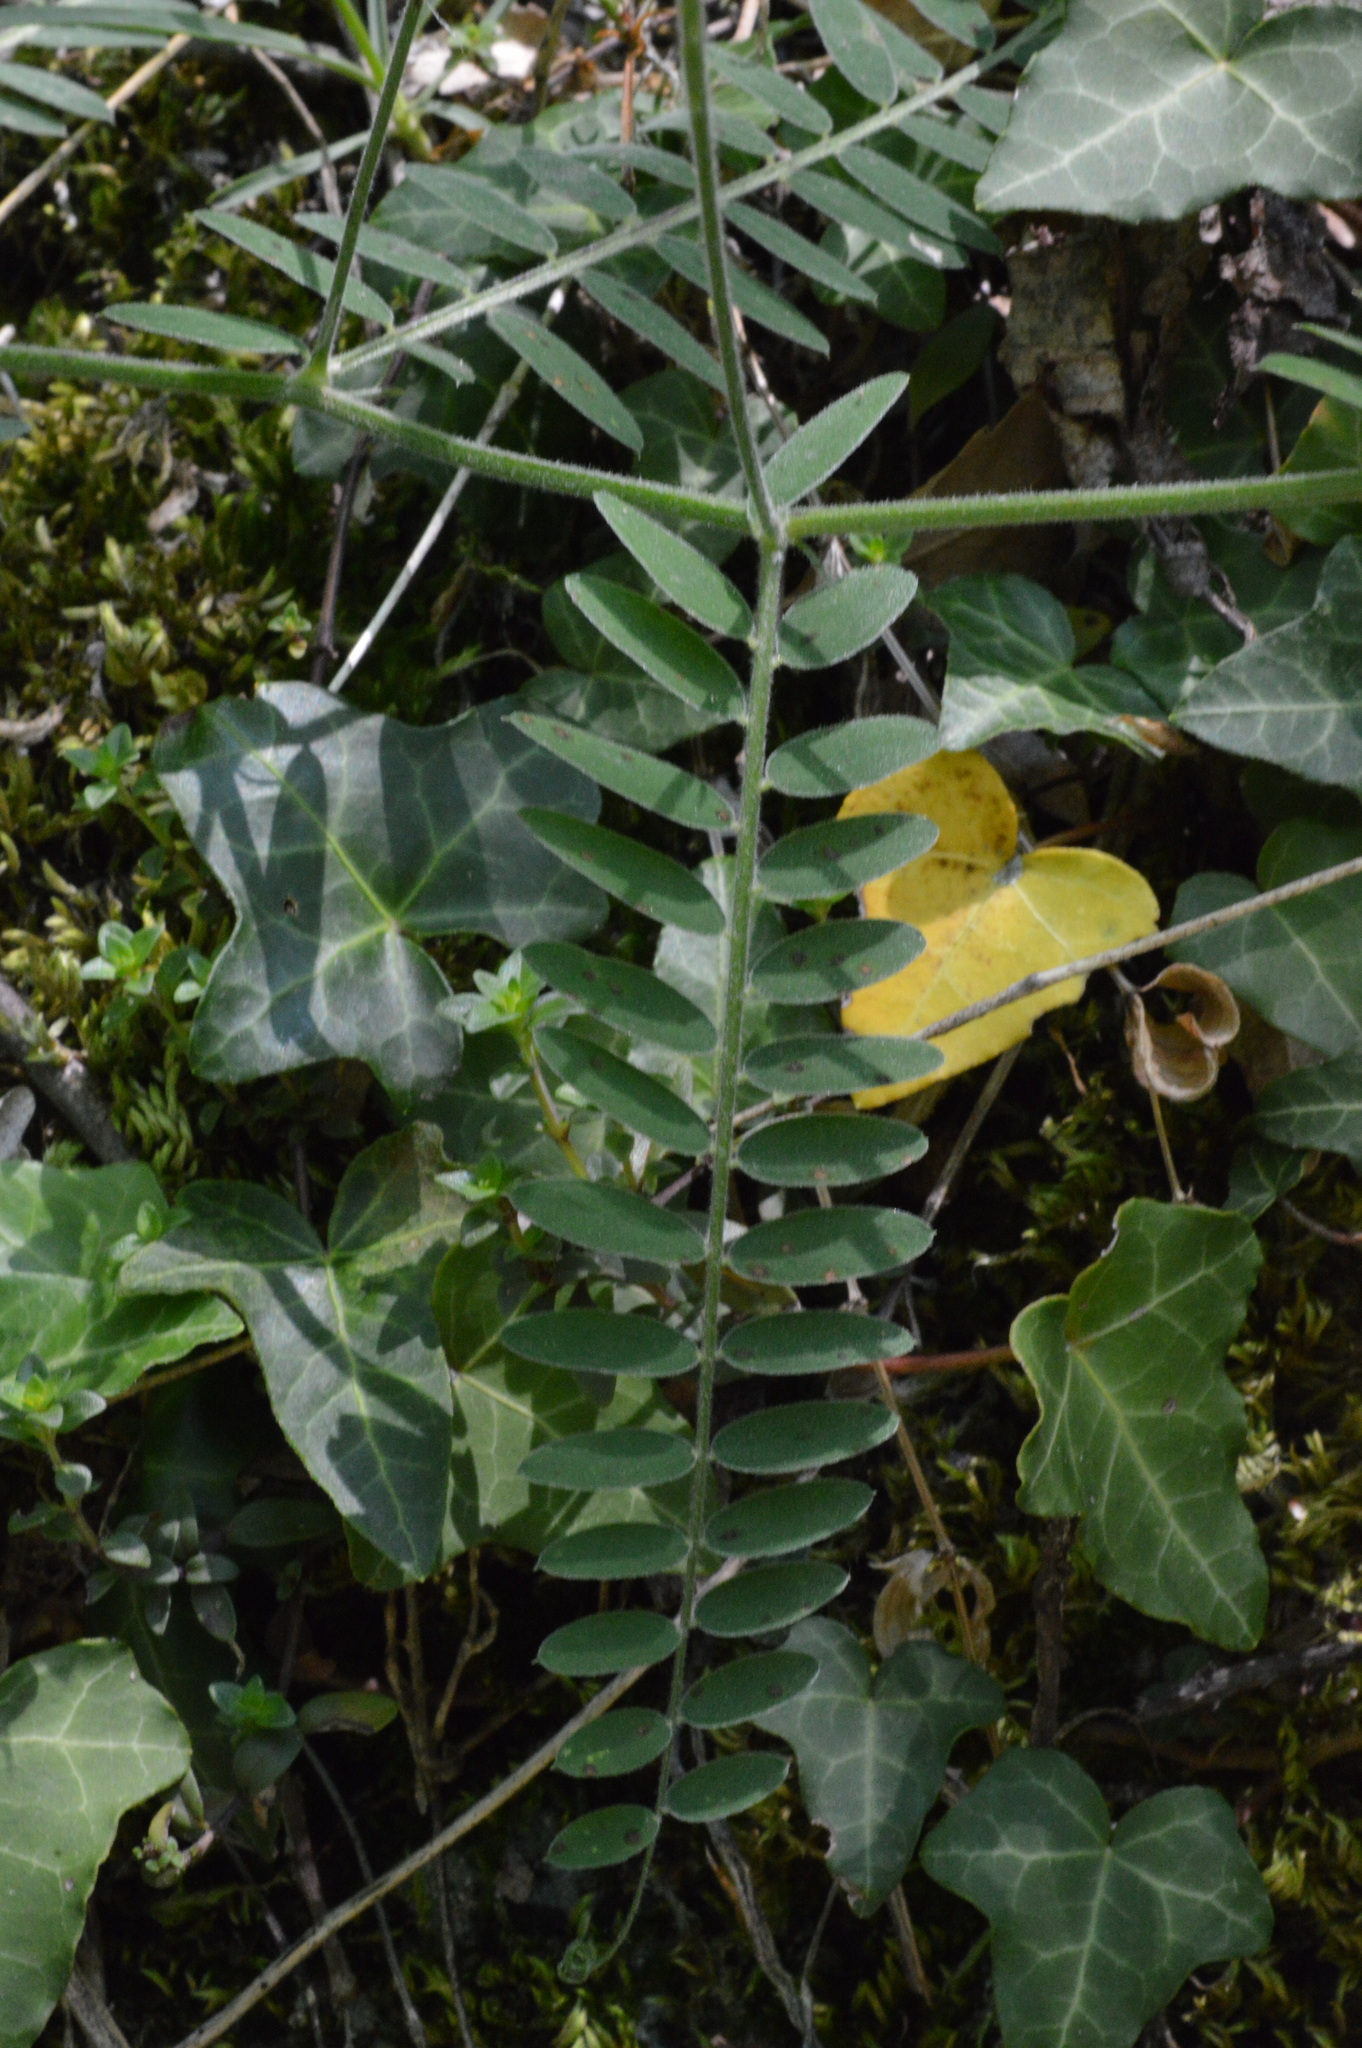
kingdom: Plantae
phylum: Tracheophyta
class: Magnoliopsida
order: Fabales
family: Fabaceae
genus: Vicia
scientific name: Vicia cracca
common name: Bird vetch
